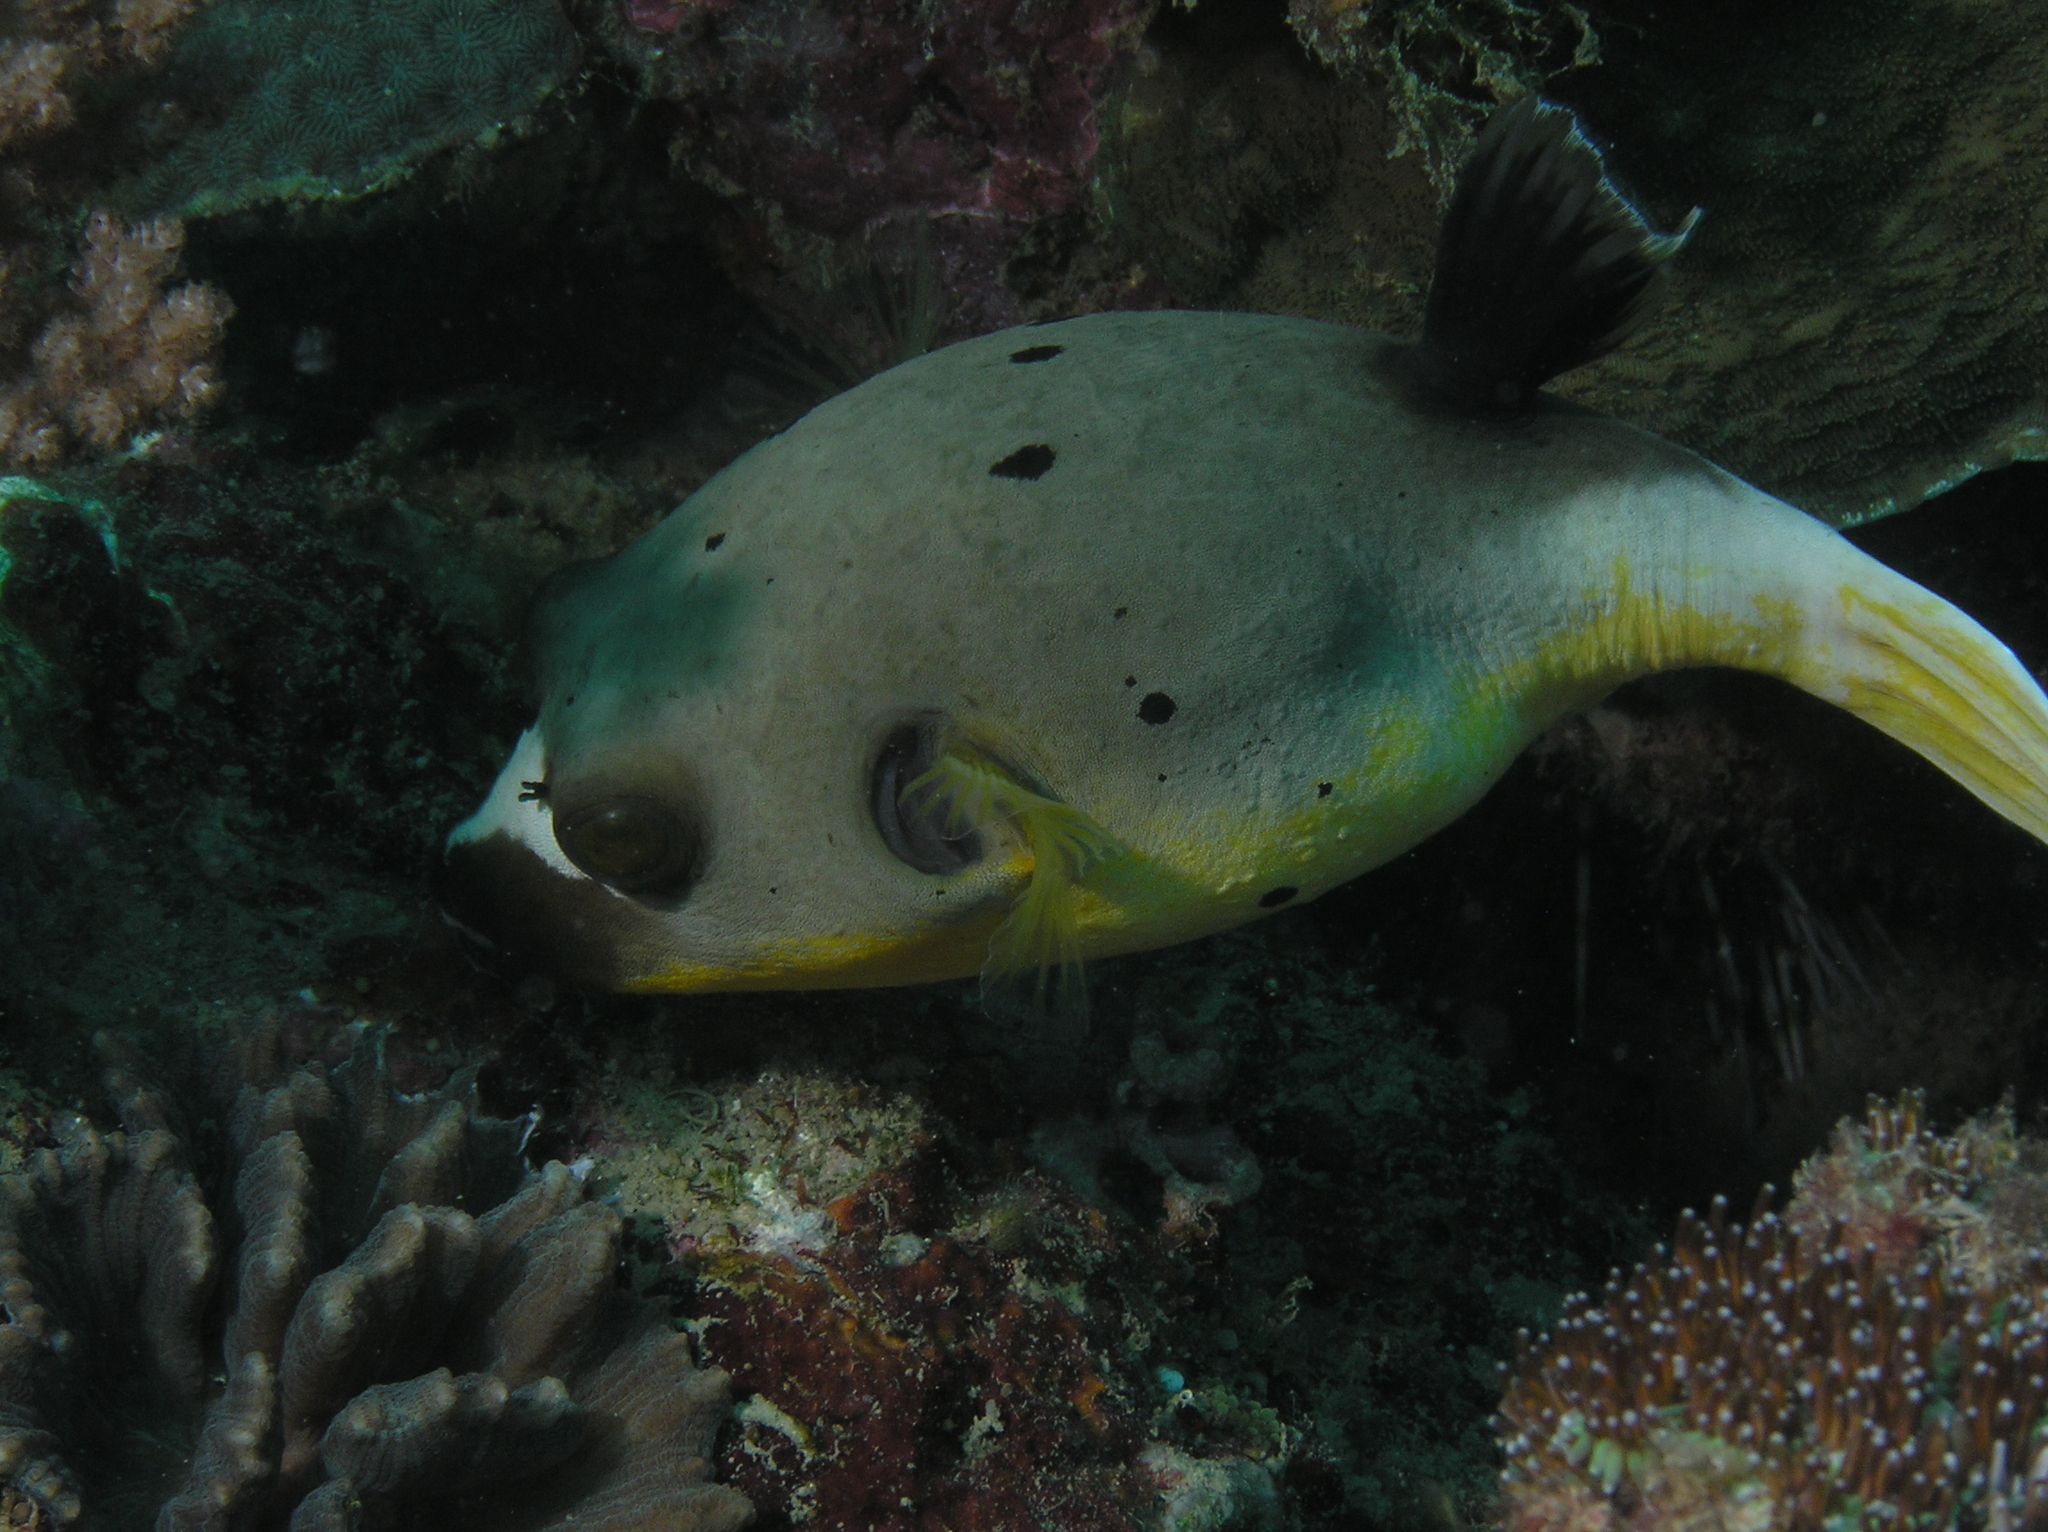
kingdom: Animalia
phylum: Chordata
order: Tetraodontiformes
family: Tetraodontidae
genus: Arothron
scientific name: Arothron nigropunctatus
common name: Black spotted blow fish
